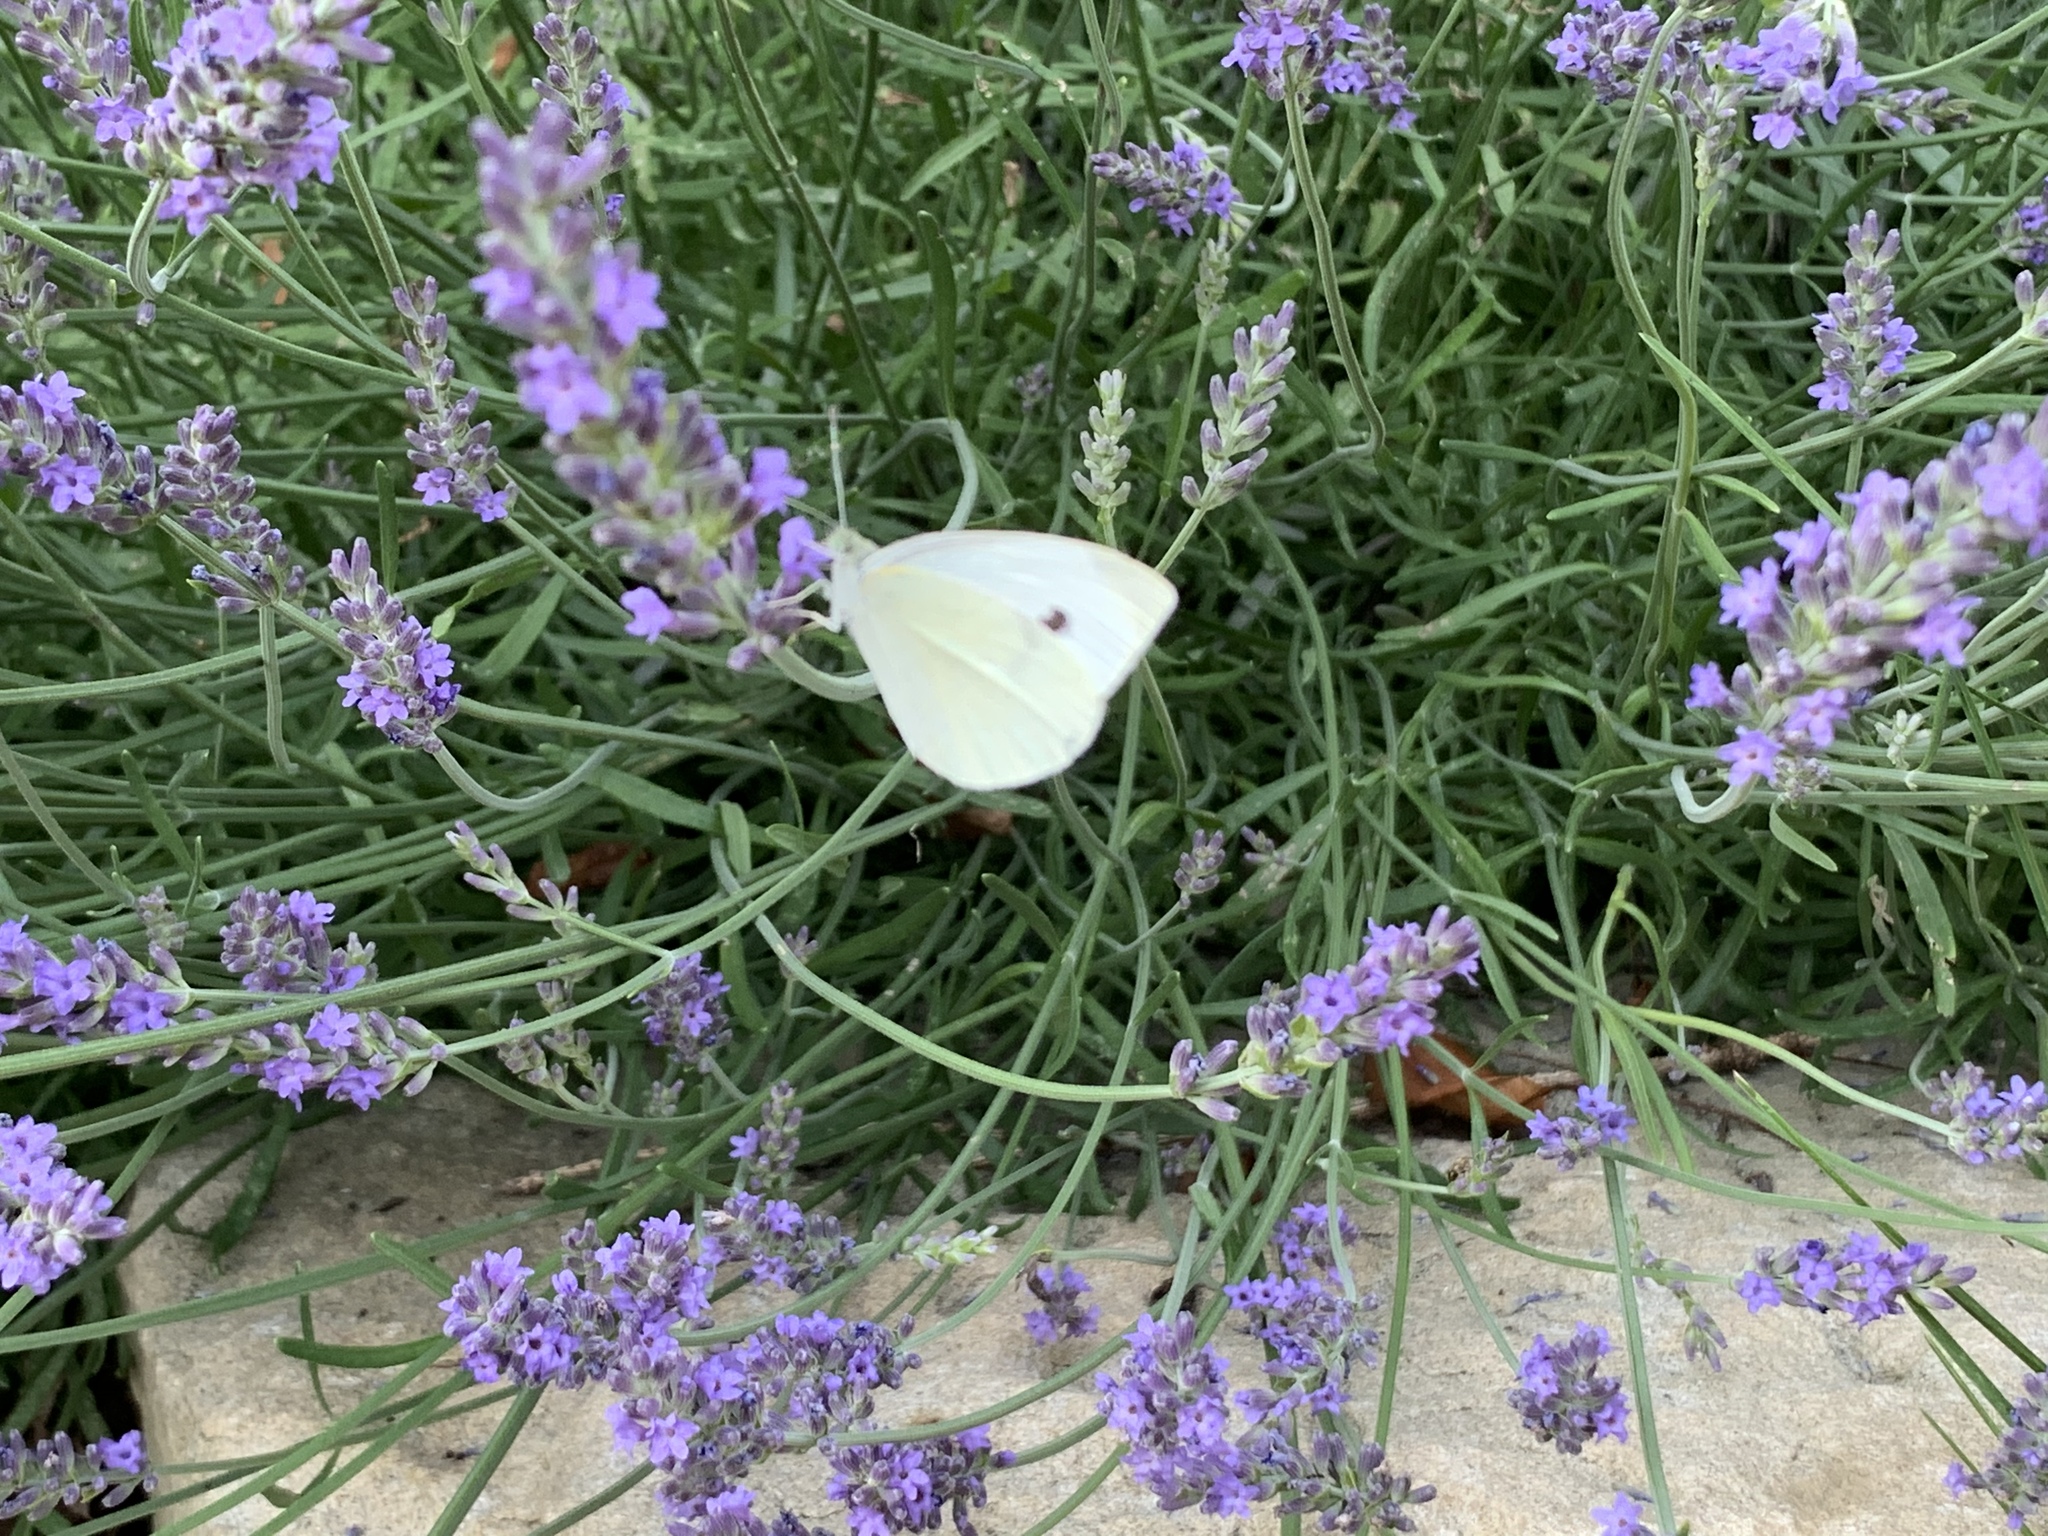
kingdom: Animalia
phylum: Arthropoda
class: Insecta
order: Lepidoptera
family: Pieridae
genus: Pieris
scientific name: Pieris rapae
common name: Small white
